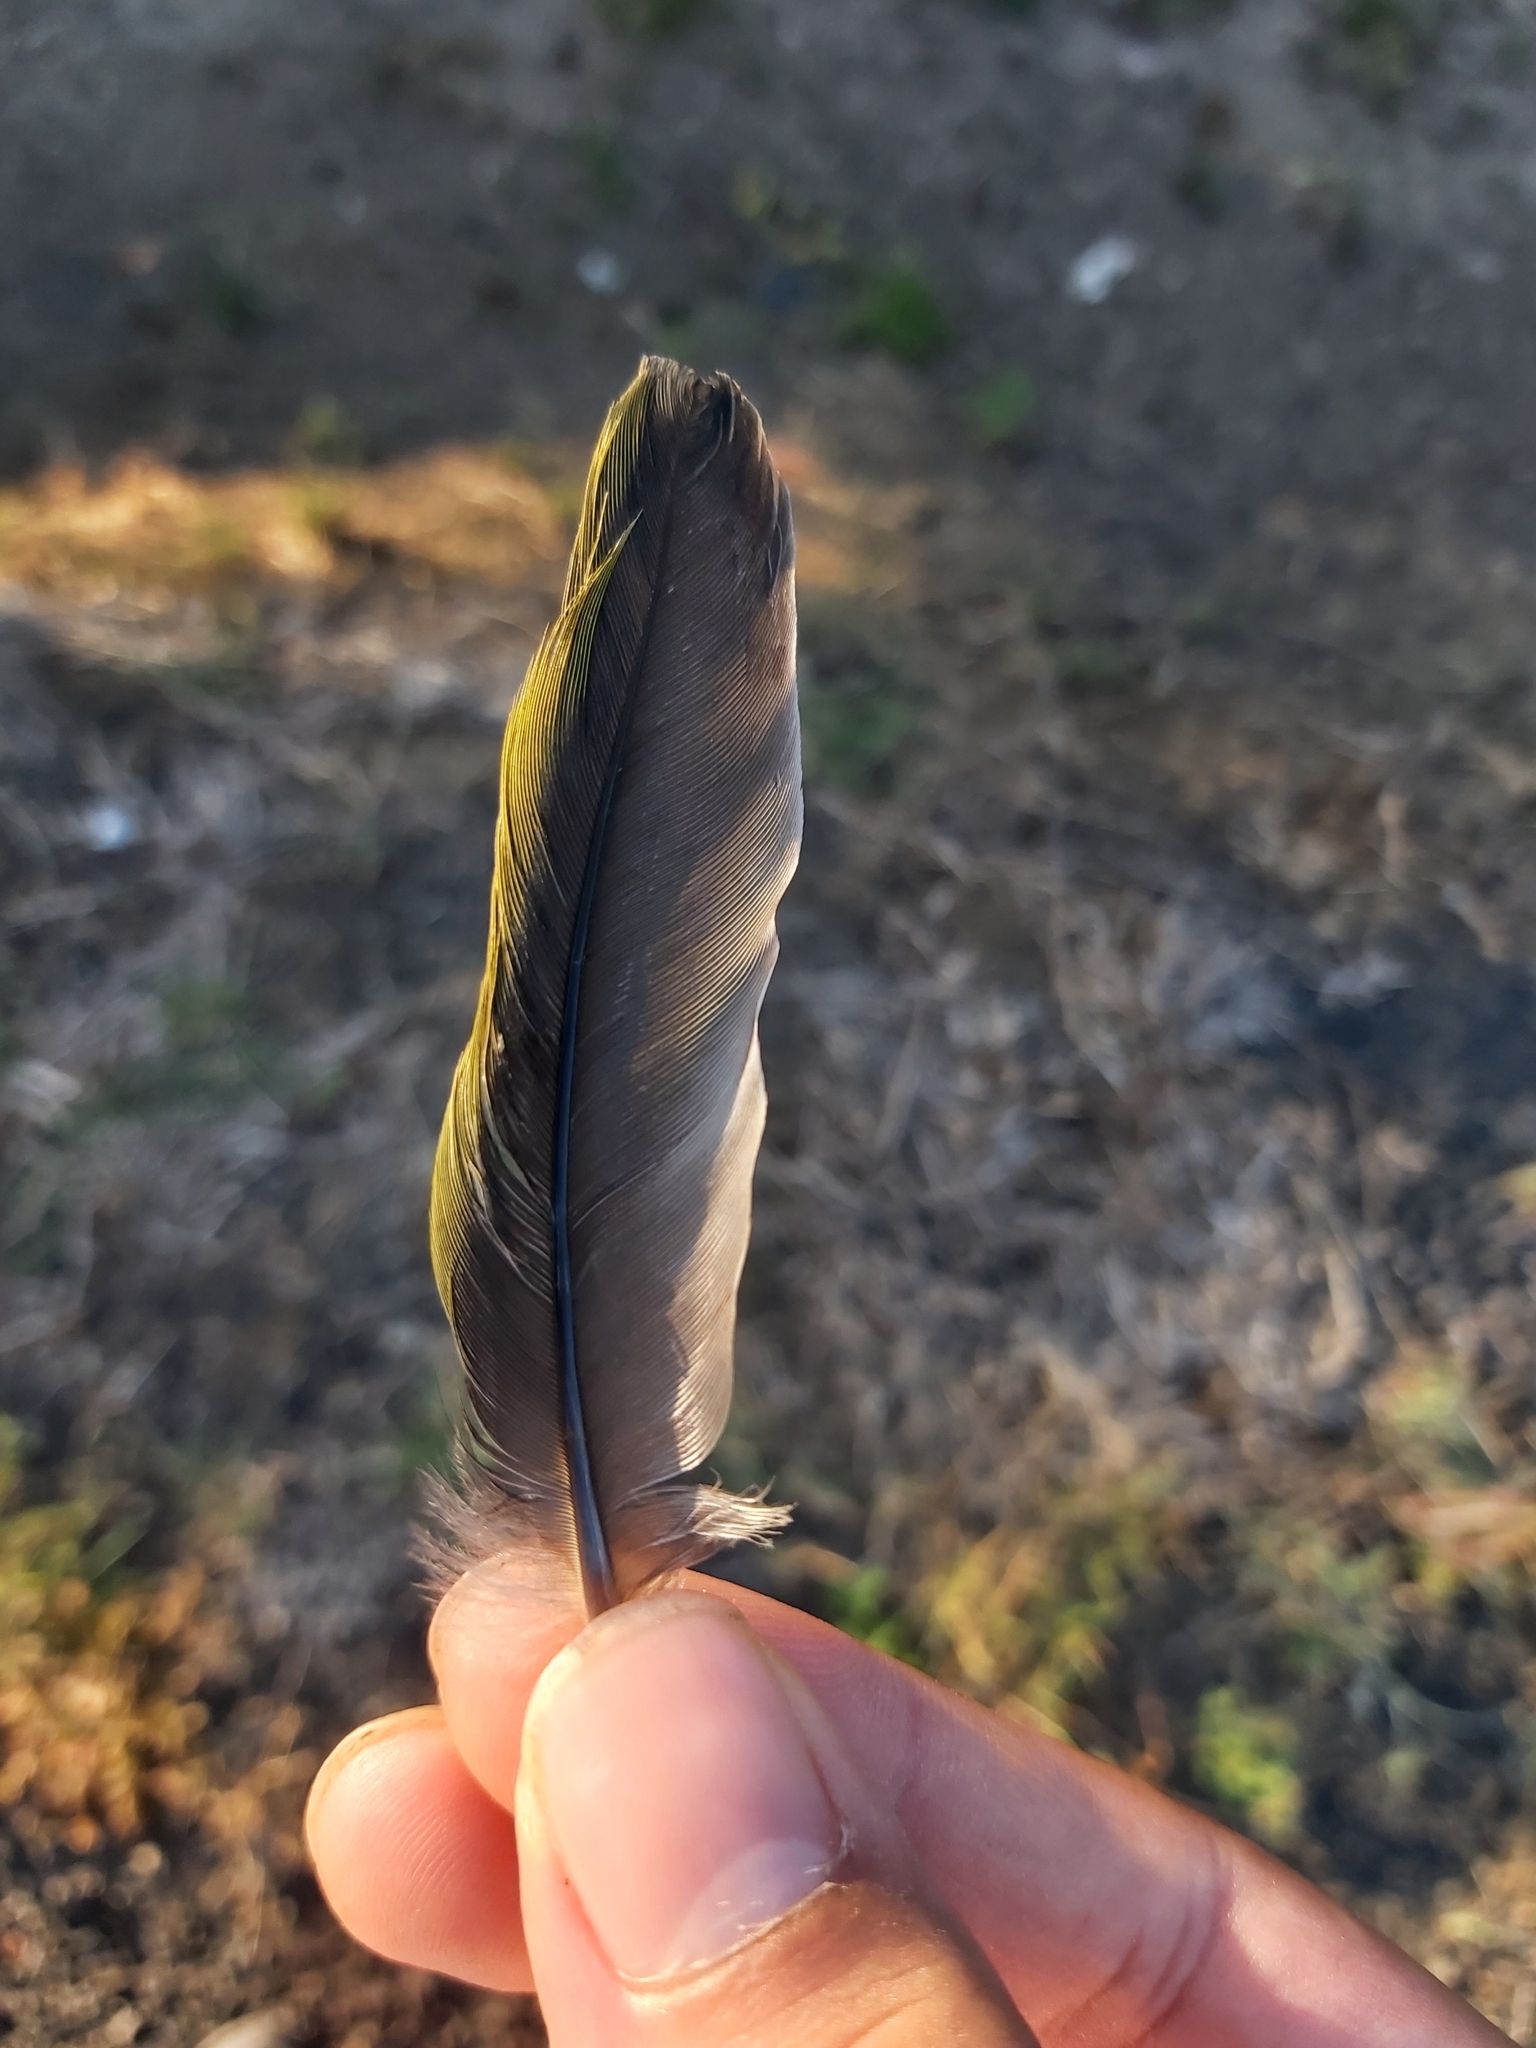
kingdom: Animalia
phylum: Chordata
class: Aves
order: Passeriformes
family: Oriolidae
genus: Sphecotheres
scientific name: Sphecotheres vieilloti
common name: Australasian figbird
